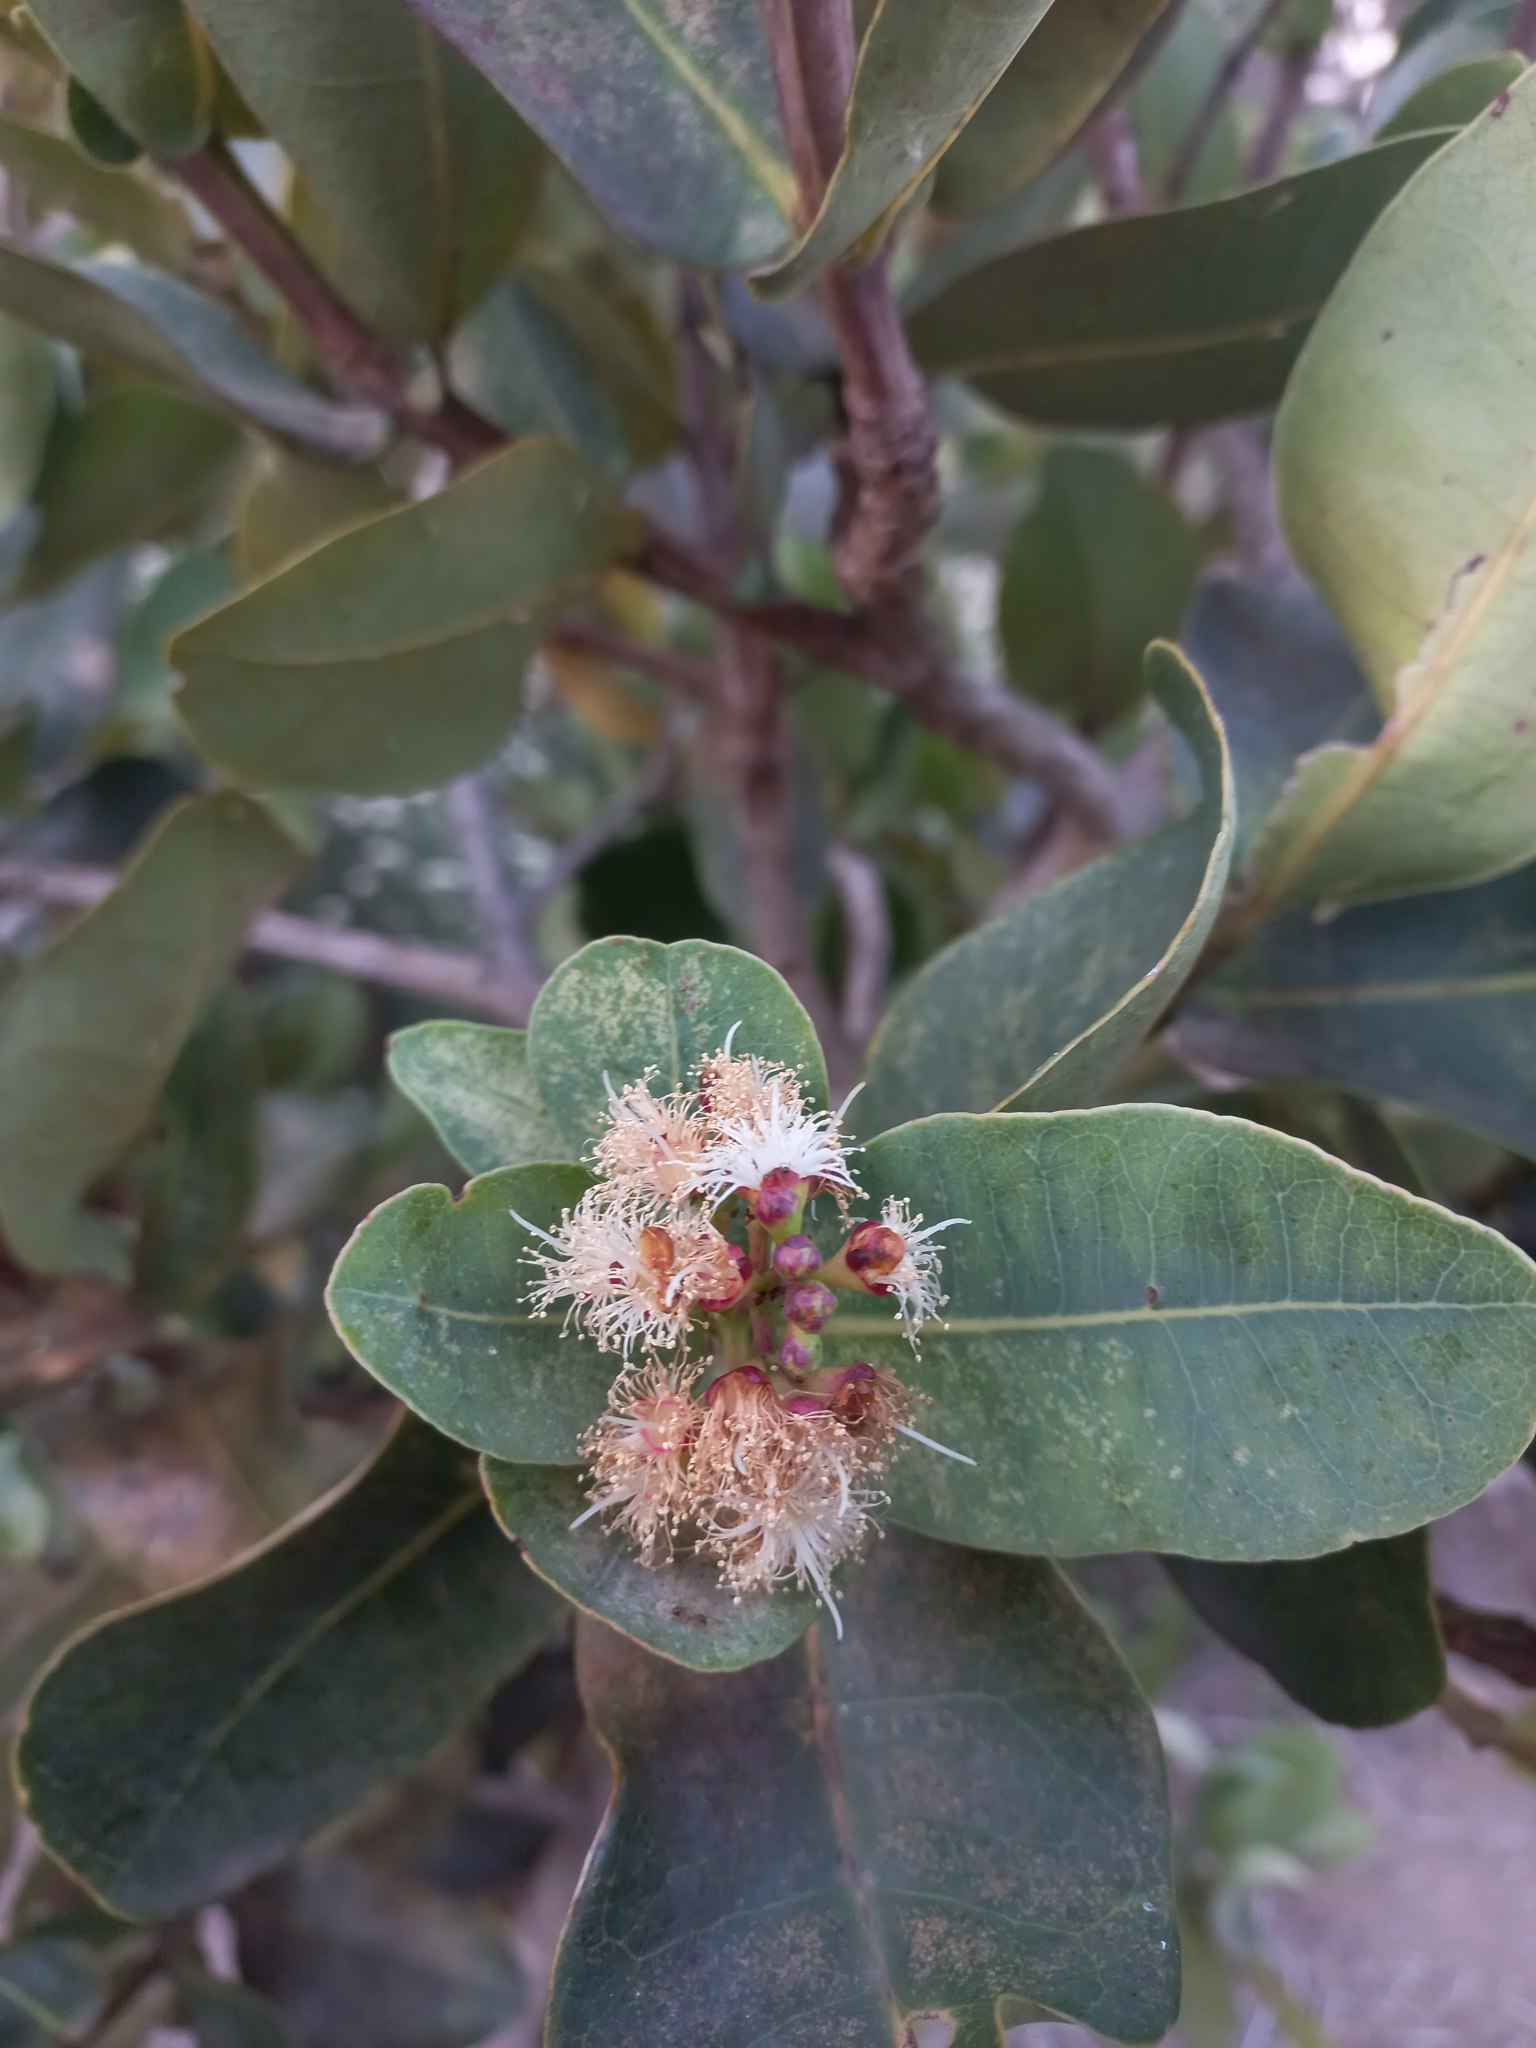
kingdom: Plantae
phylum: Tracheophyta
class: Magnoliopsida
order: Myrtales
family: Myrtaceae
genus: Syzygium
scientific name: Syzygium cordatum
